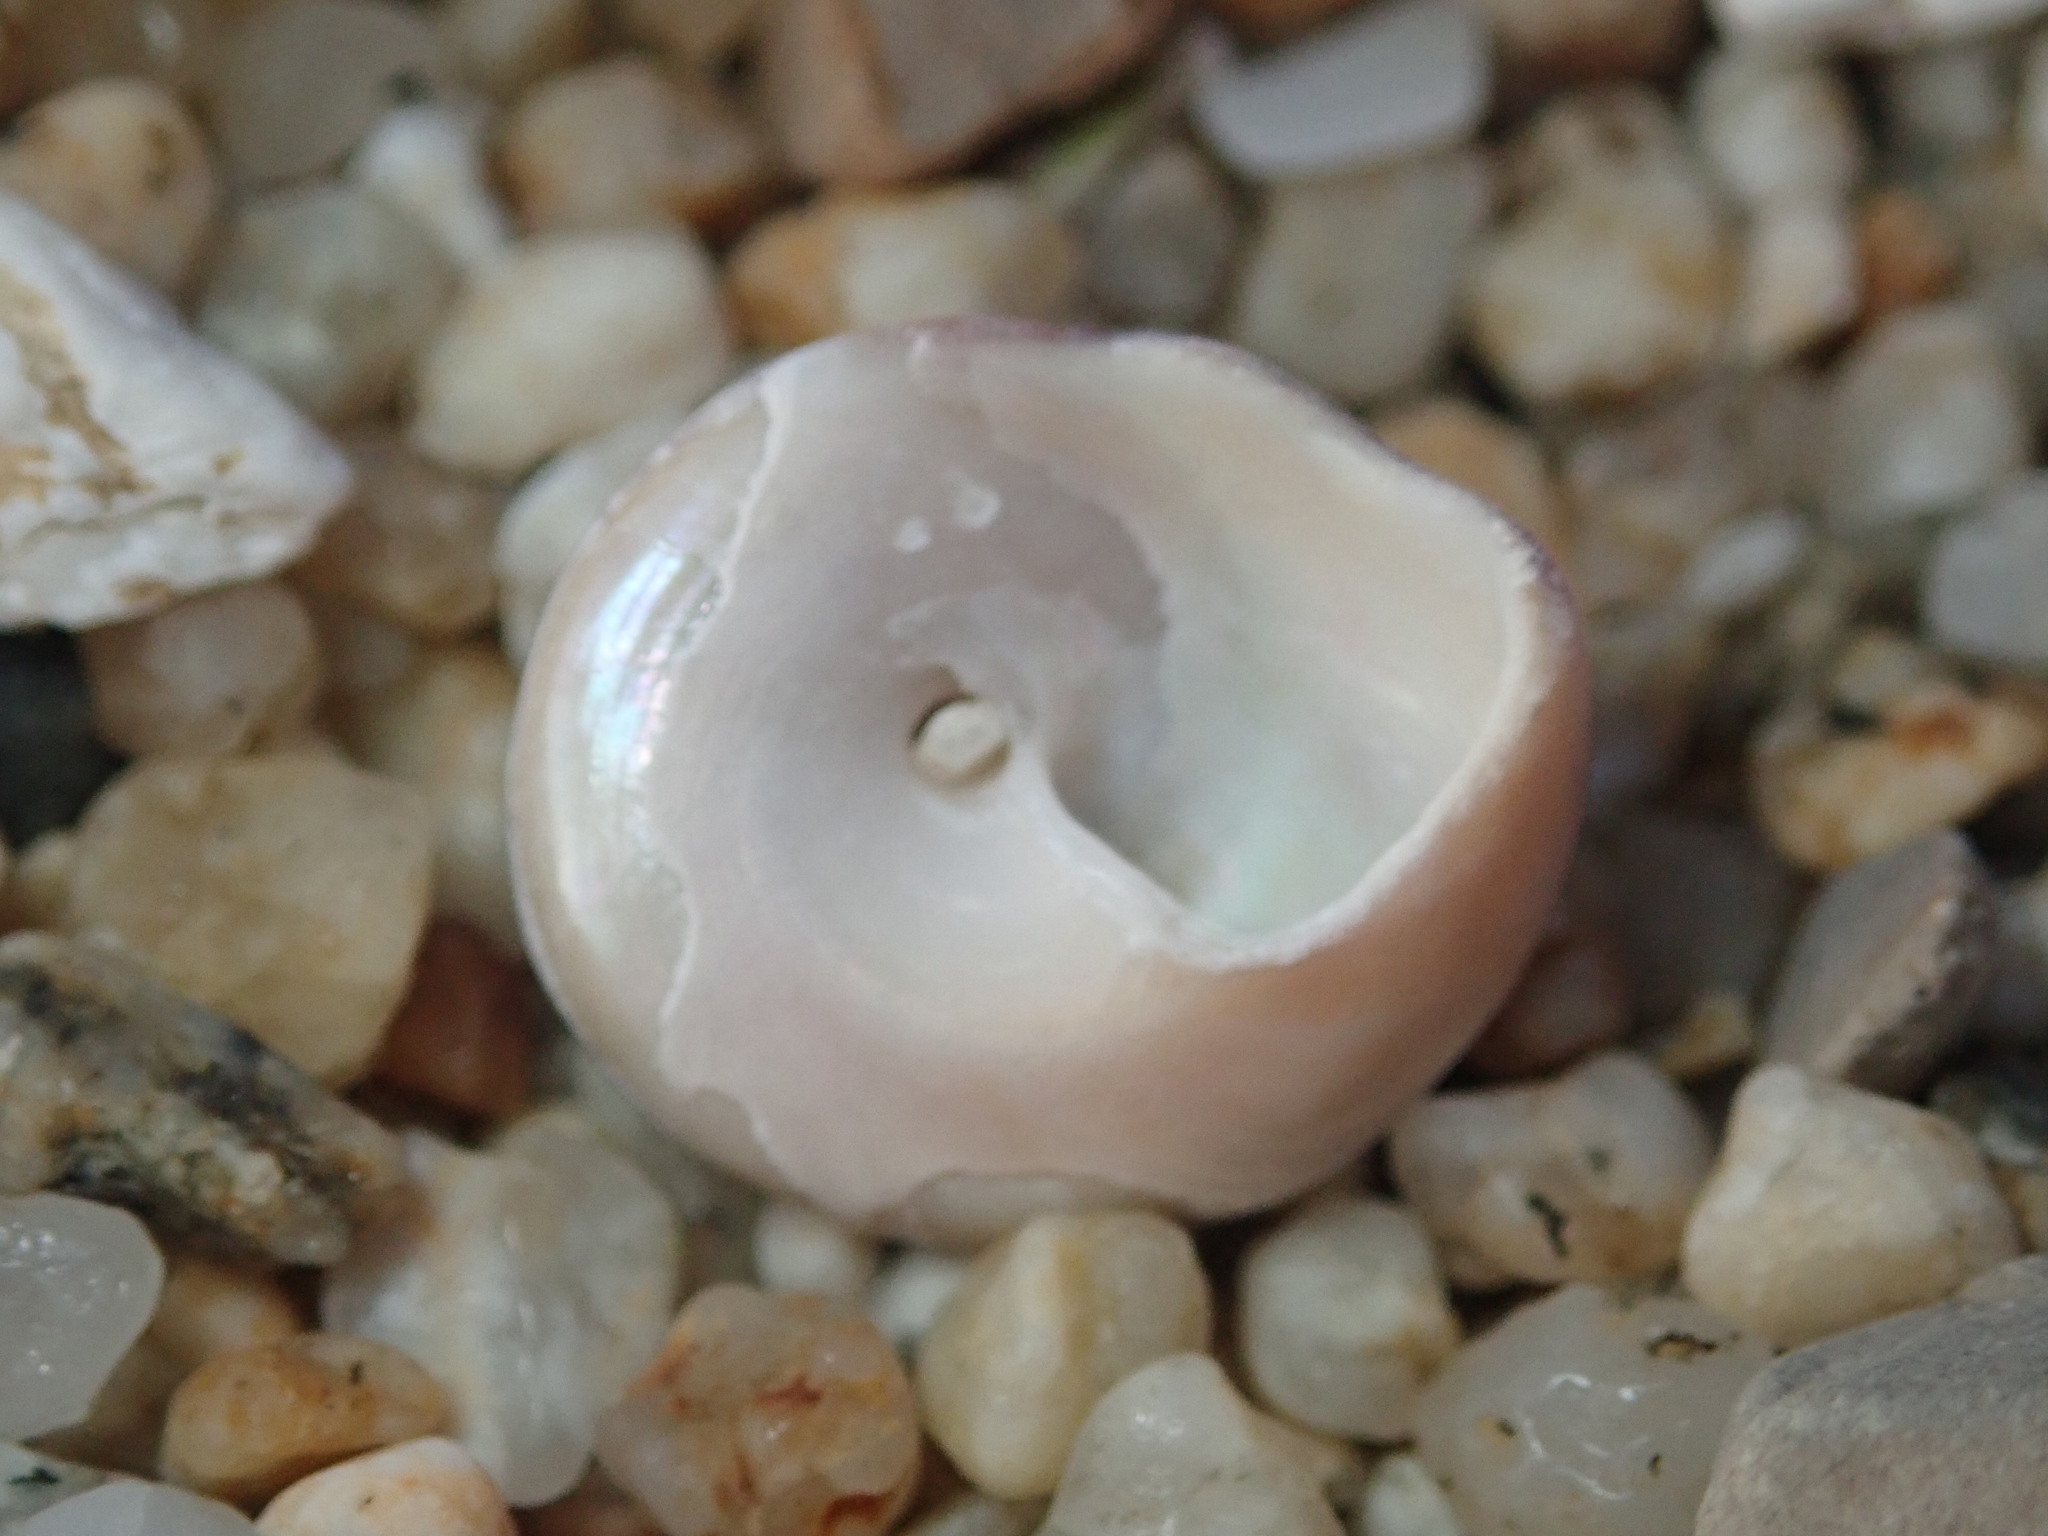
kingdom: Animalia
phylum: Mollusca
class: Gastropoda
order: Trochida
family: Tegulidae
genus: Tegula
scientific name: Tegula pulligo
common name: Brown turban
